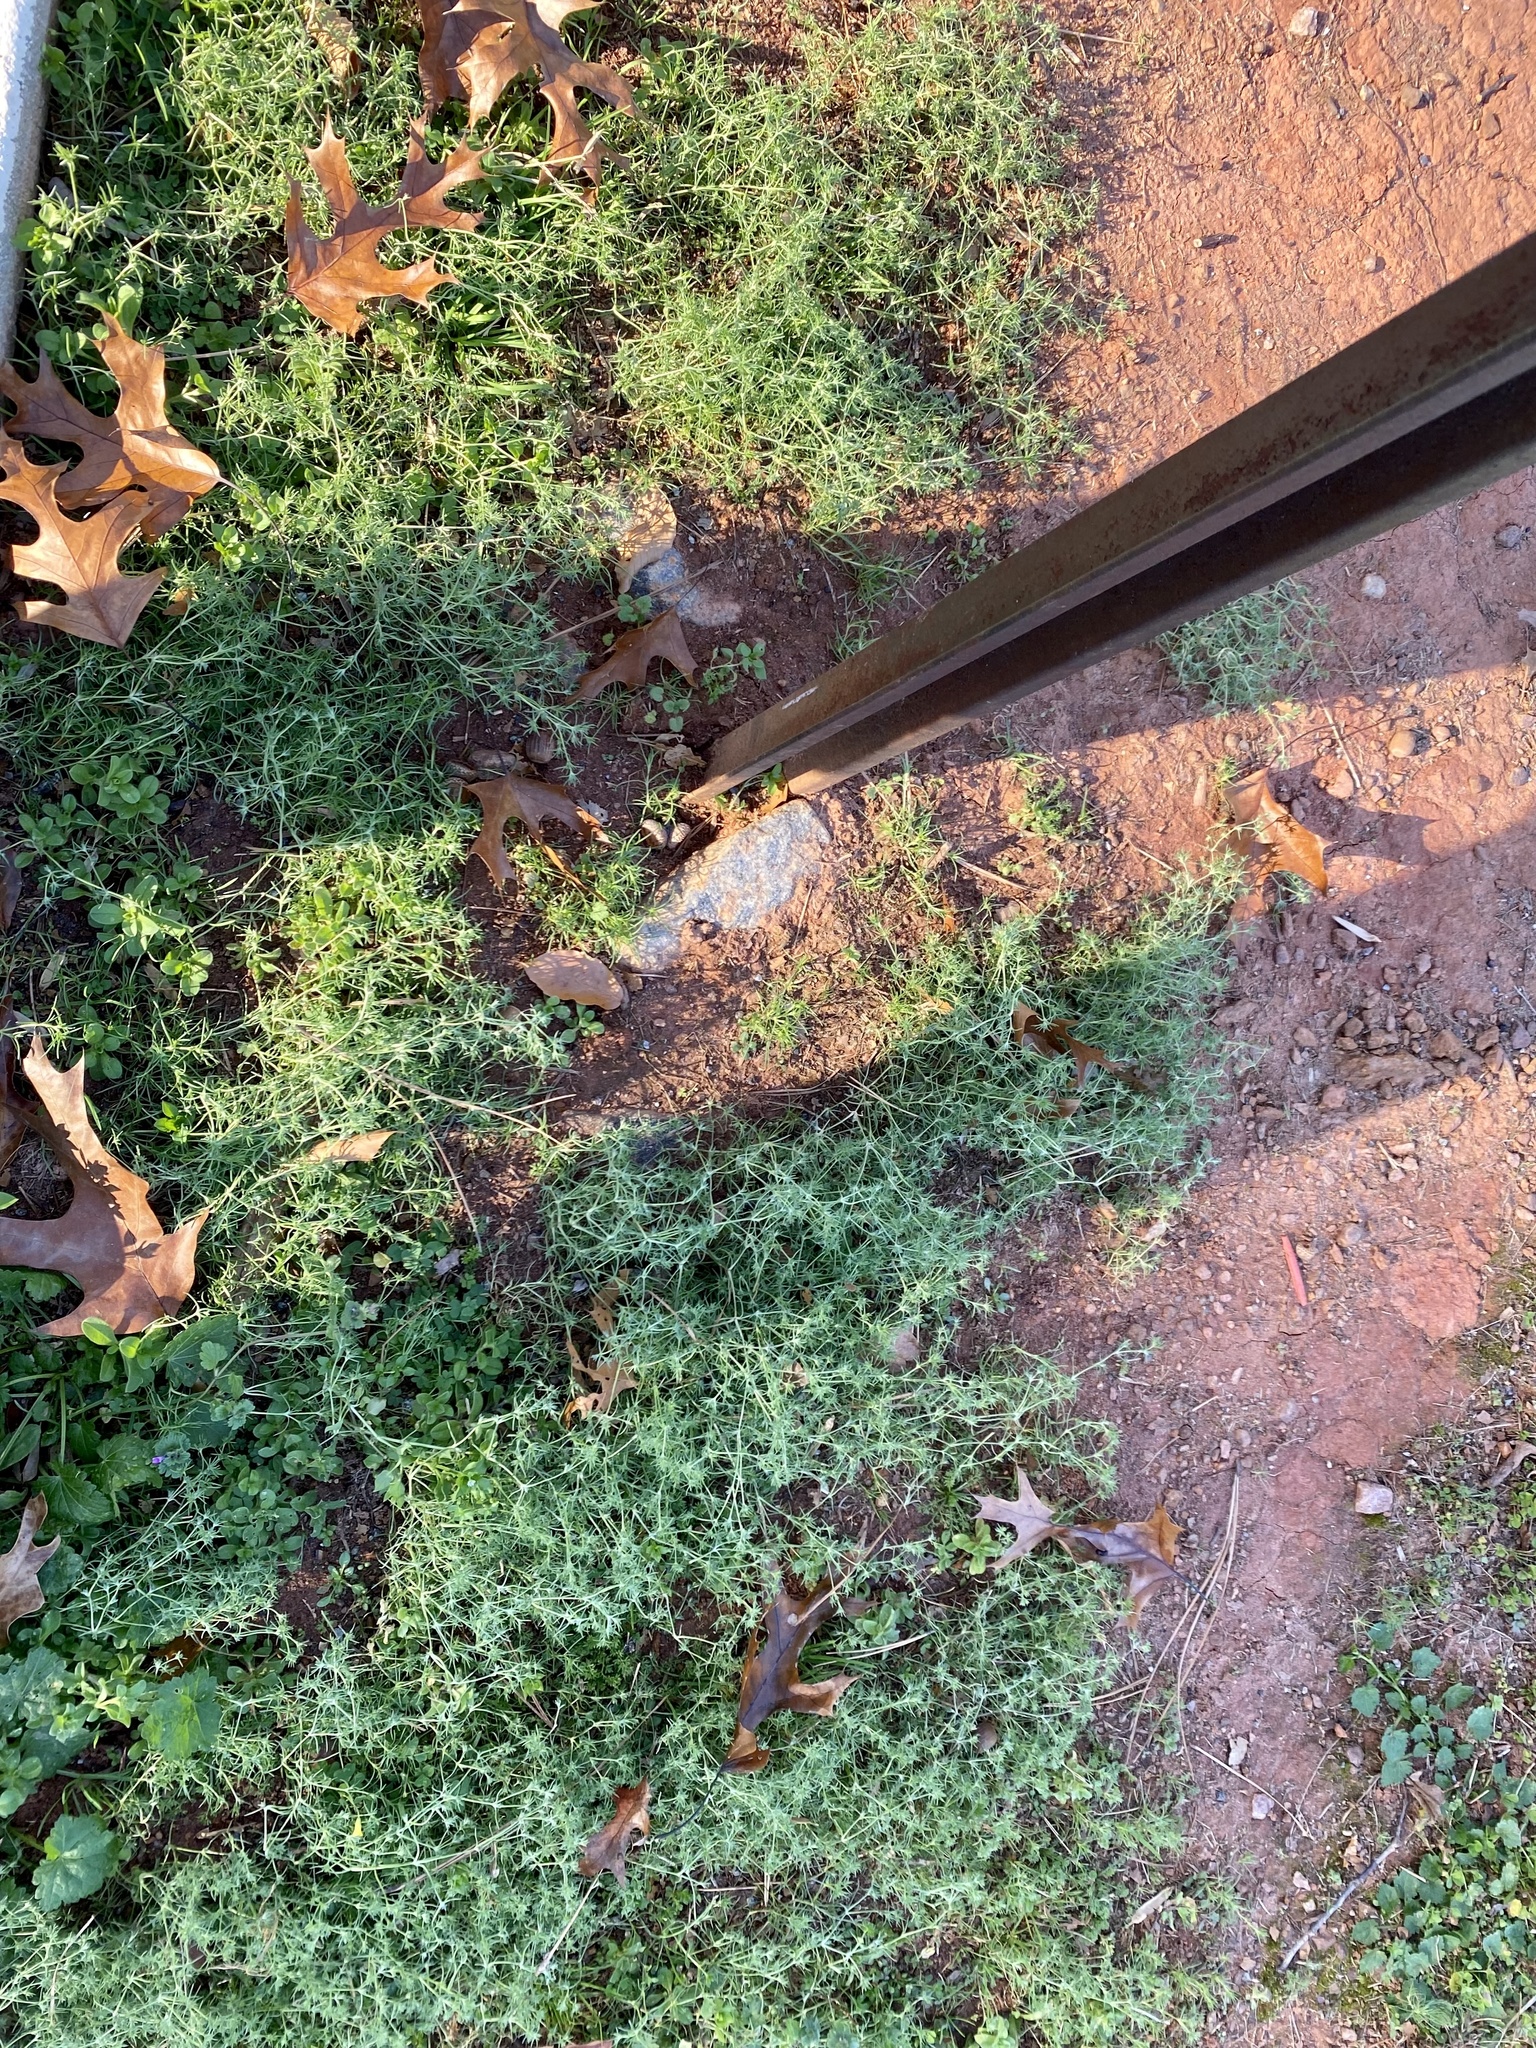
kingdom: Plantae
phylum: Tracheophyta
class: Magnoliopsida
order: Caryophyllales
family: Caryophyllaceae
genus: Scleranthus
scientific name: Scleranthus annuus
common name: Annual knawel
